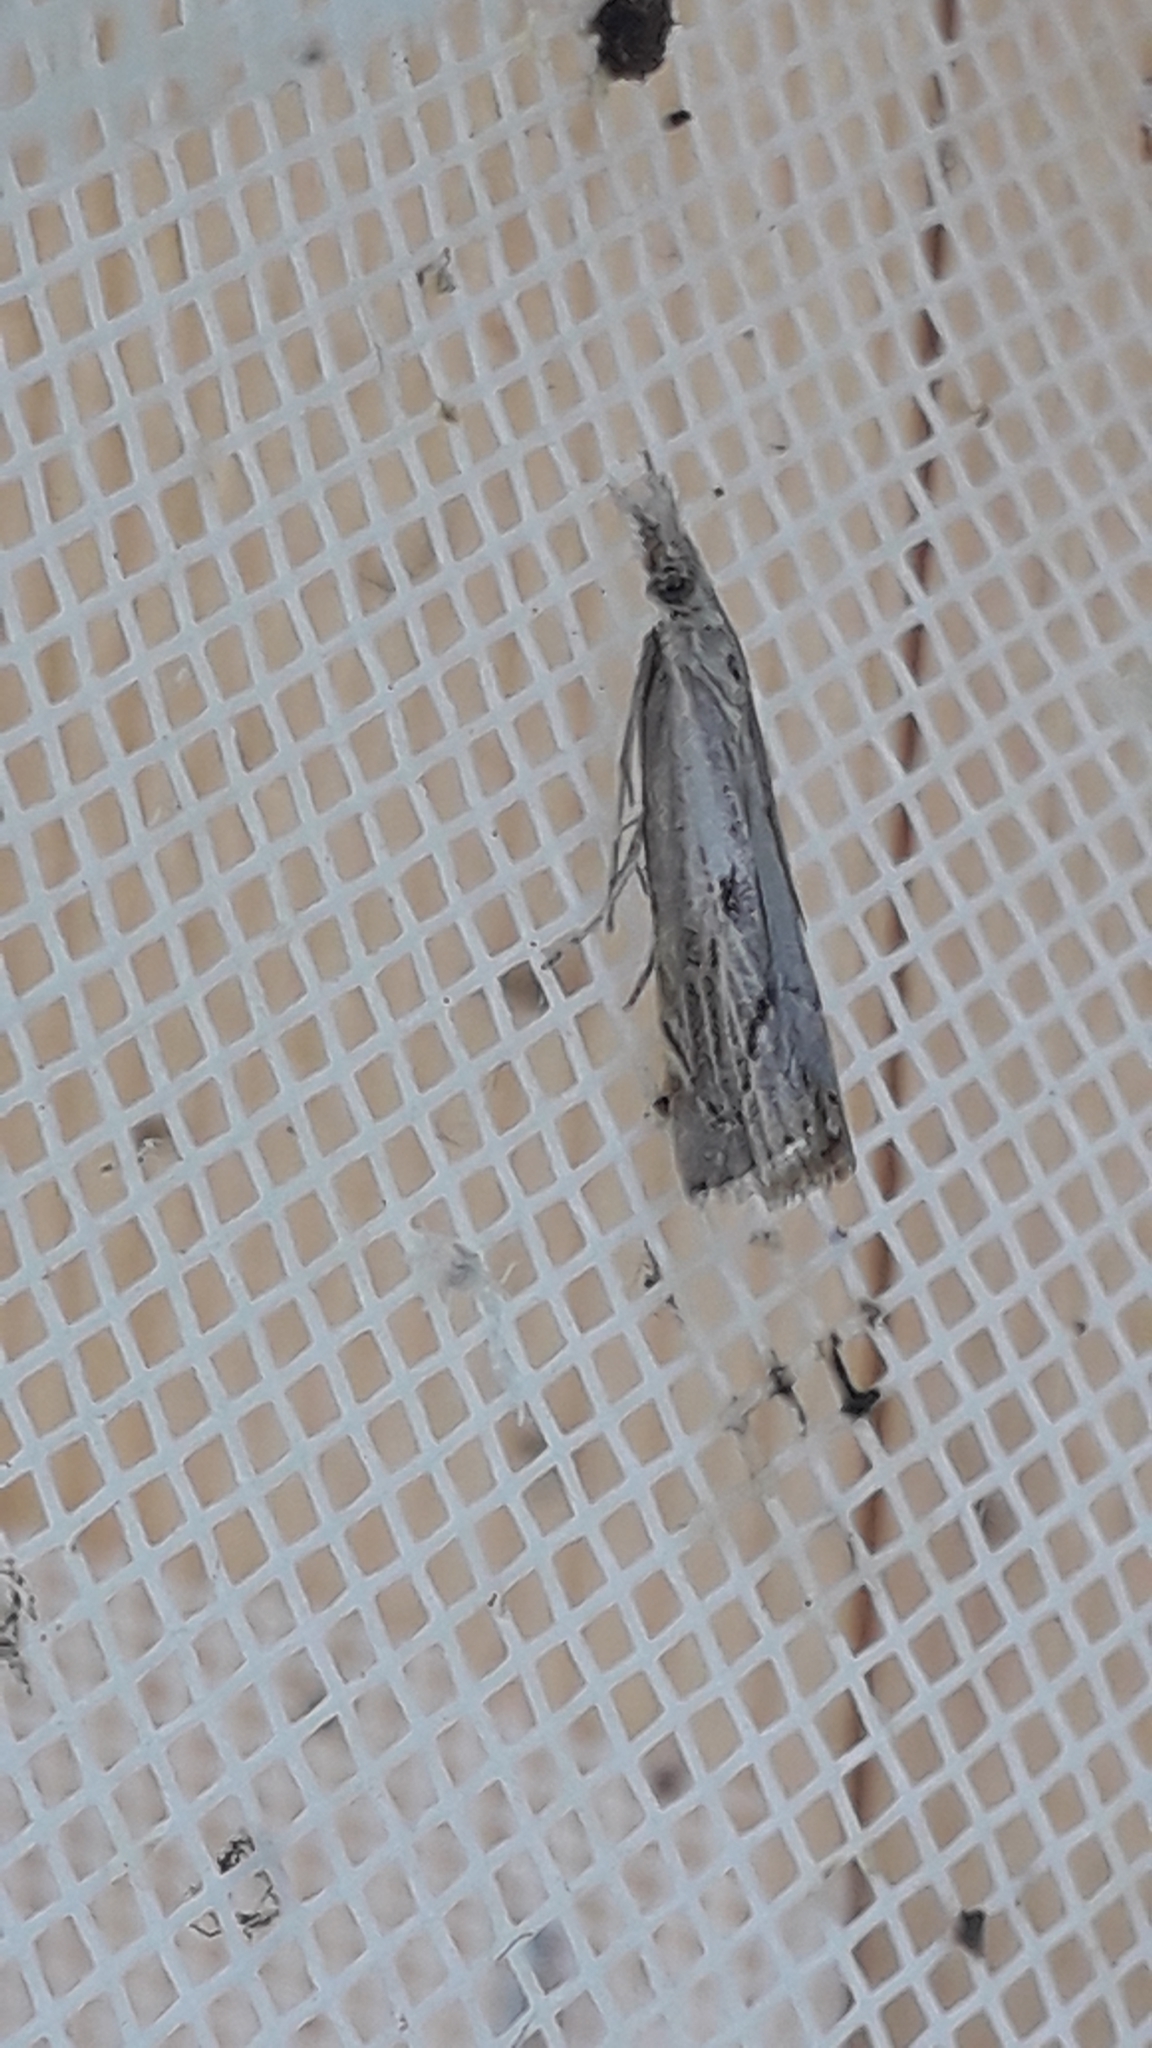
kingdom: Animalia
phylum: Arthropoda
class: Insecta
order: Lepidoptera
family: Crambidae
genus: Agriphila
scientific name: Agriphila inquinatella
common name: Barred grass-veneer
